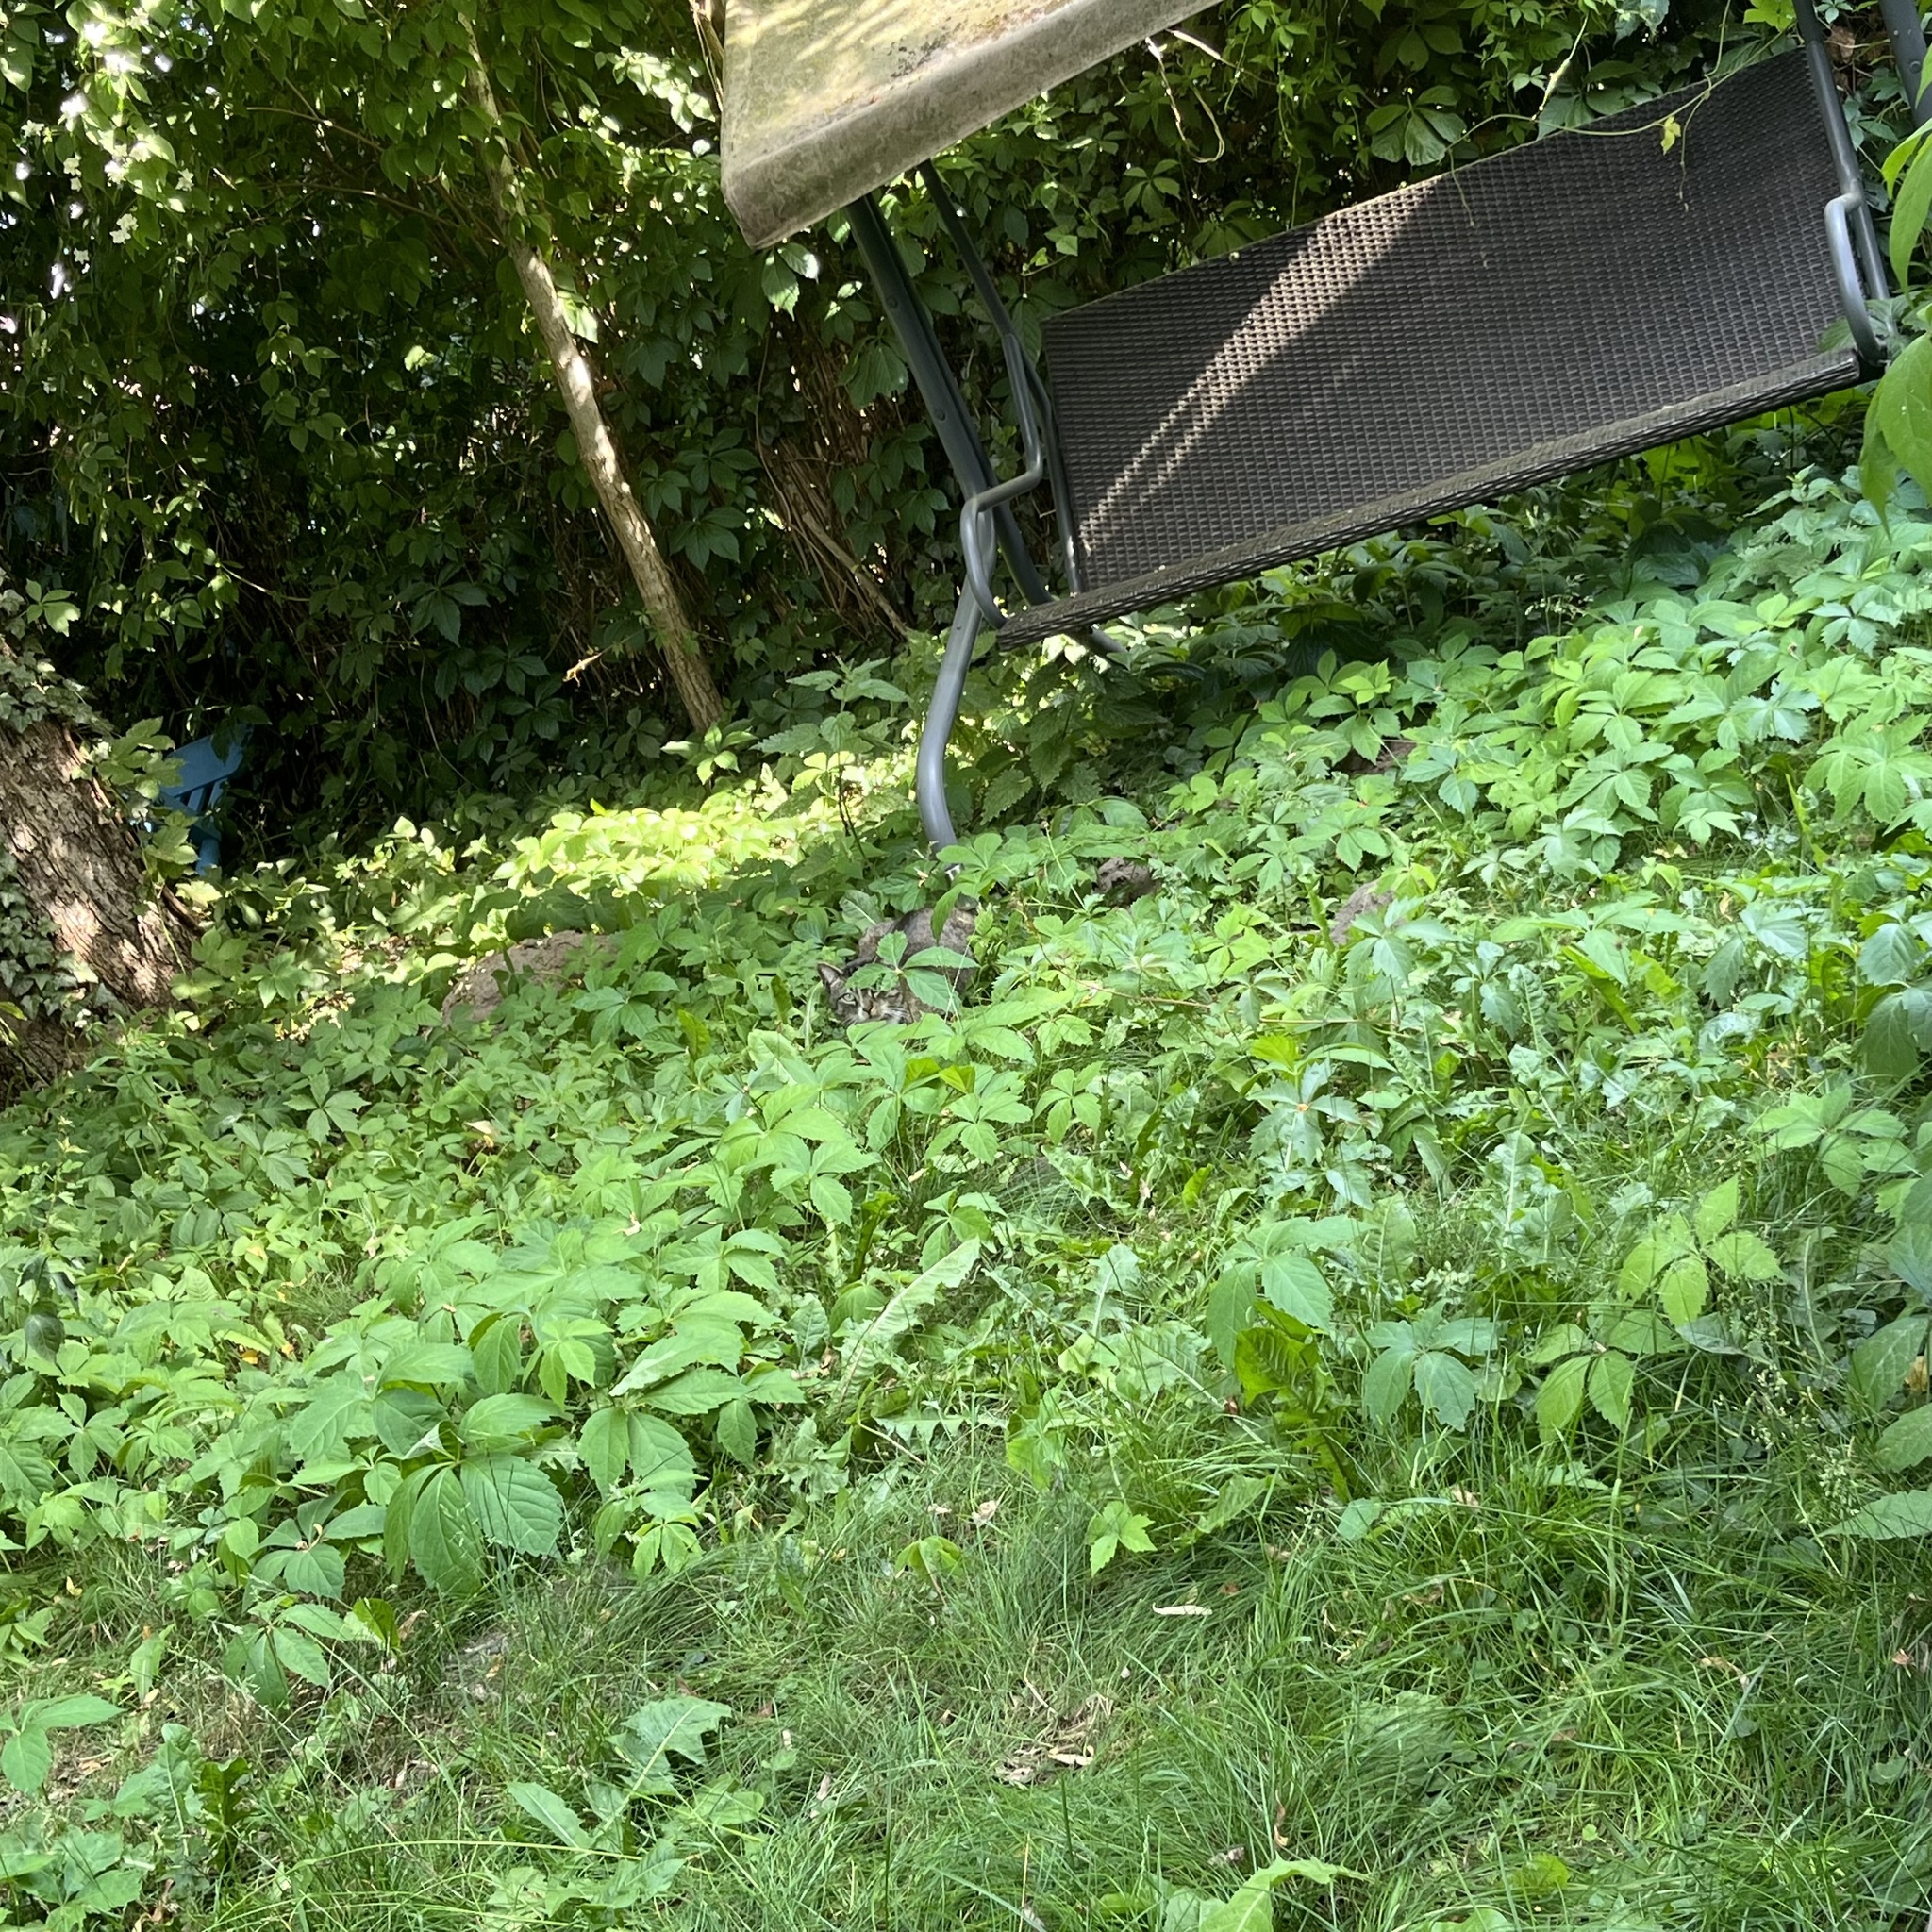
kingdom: Animalia
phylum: Chordata
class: Mammalia
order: Carnivora
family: Felidae
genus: Felis
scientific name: Felis catus
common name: Domestic cat
